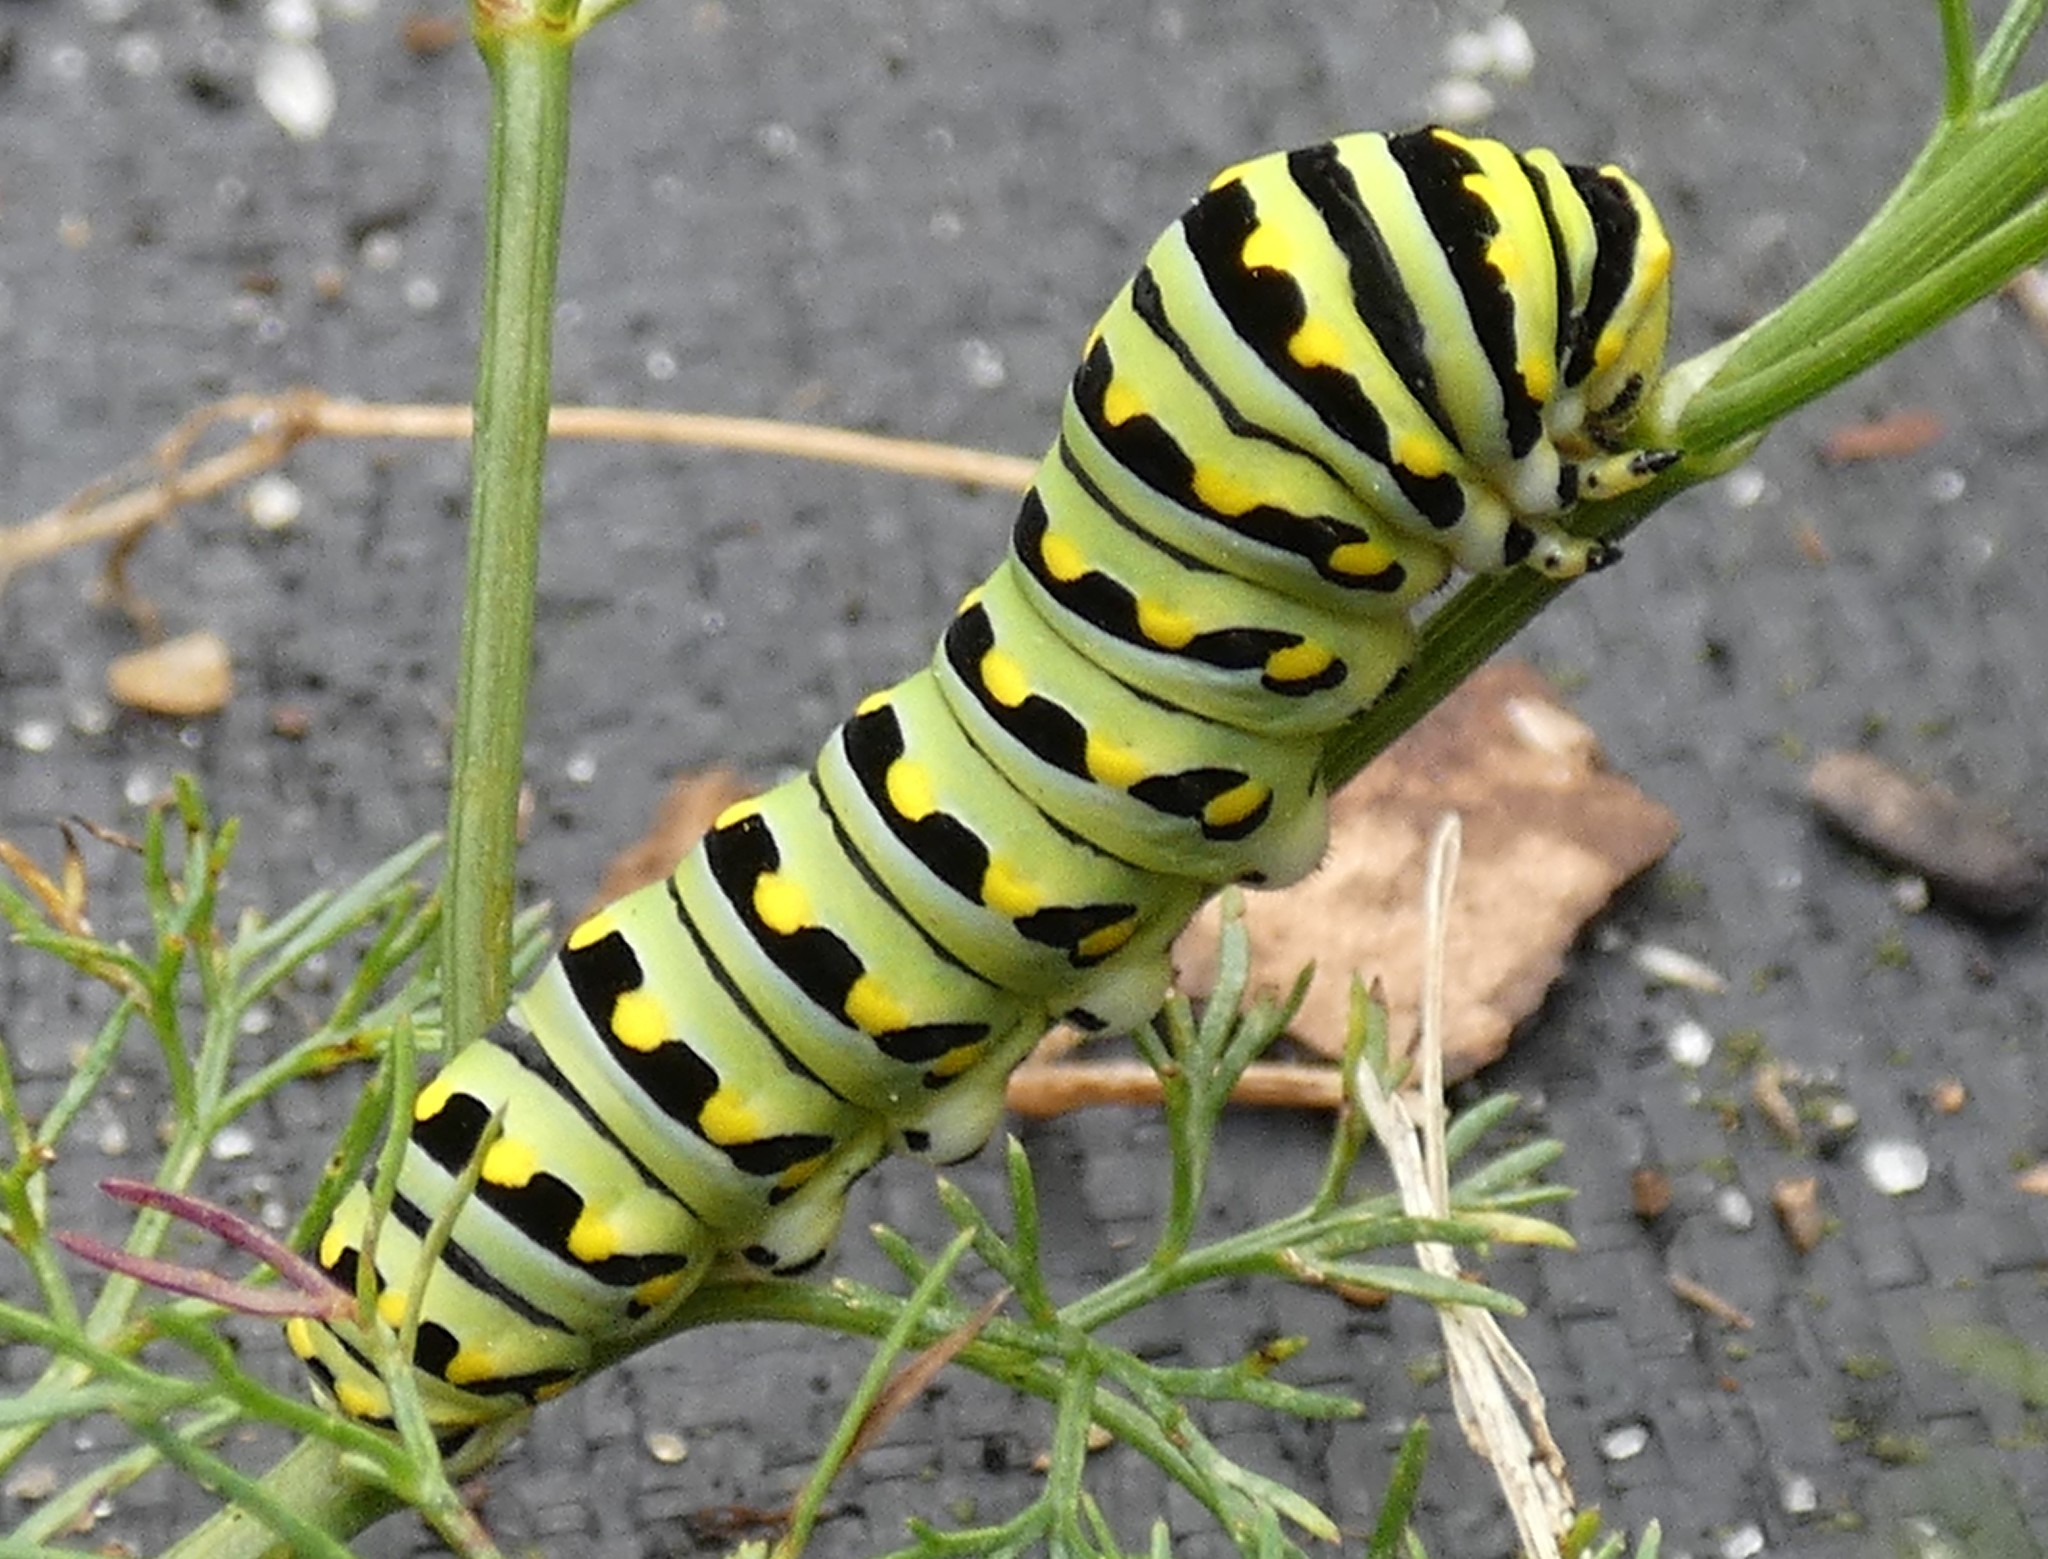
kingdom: Animalia
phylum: Arthropoda
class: Insecta
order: Lepidoptera
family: Papilionidae
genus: Papilio
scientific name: Papilio polyxenes
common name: Black swallowtail
